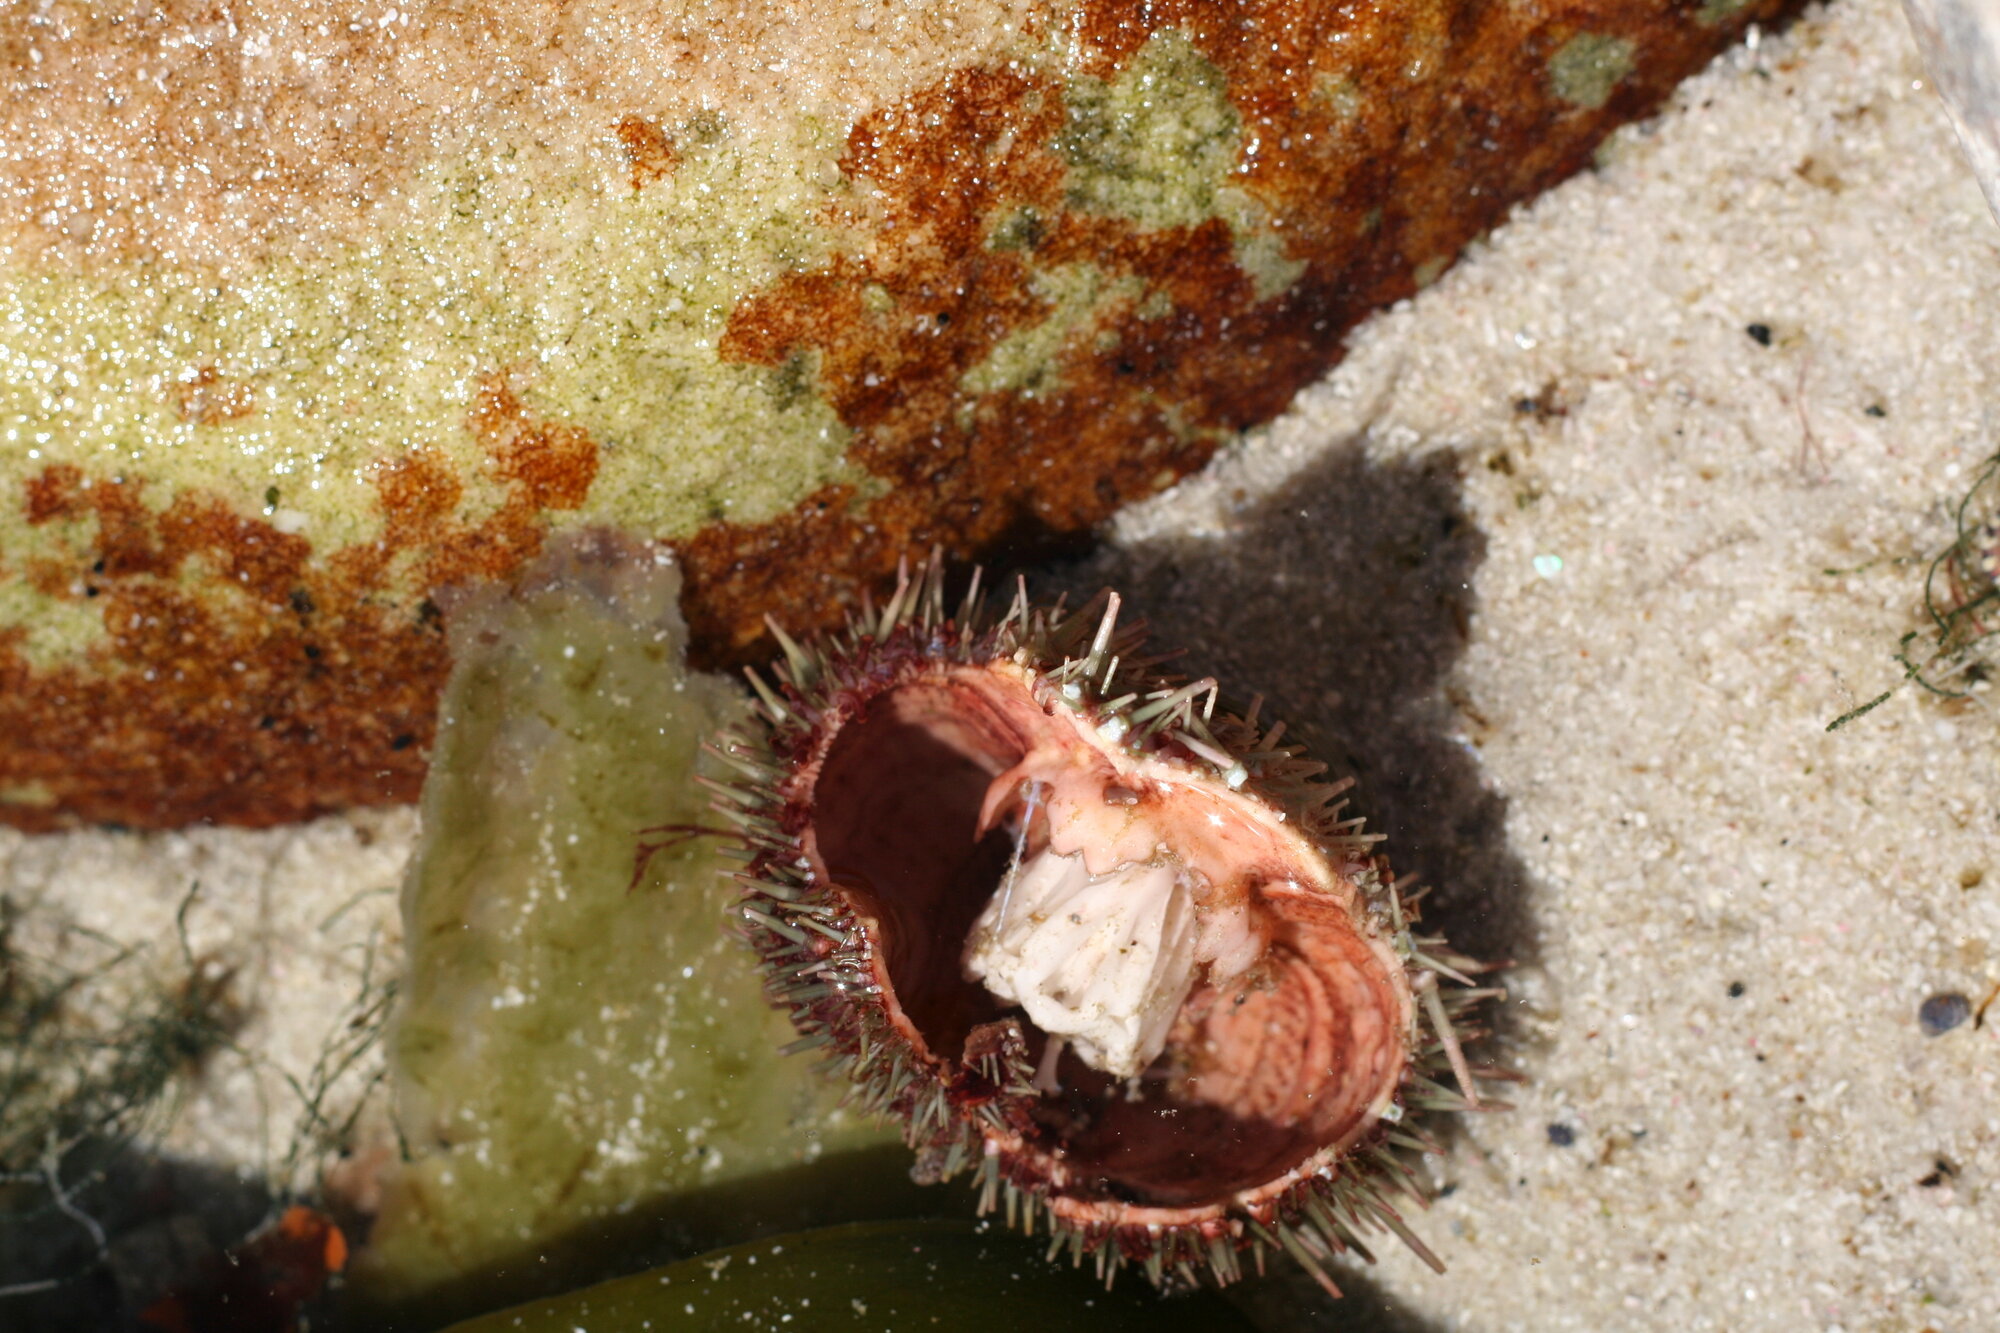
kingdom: Animalia
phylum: Echinodermata
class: Echinoidea
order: Camarodonta
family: Parechinidae
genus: Parechinus
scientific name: Parechinus angulosus
